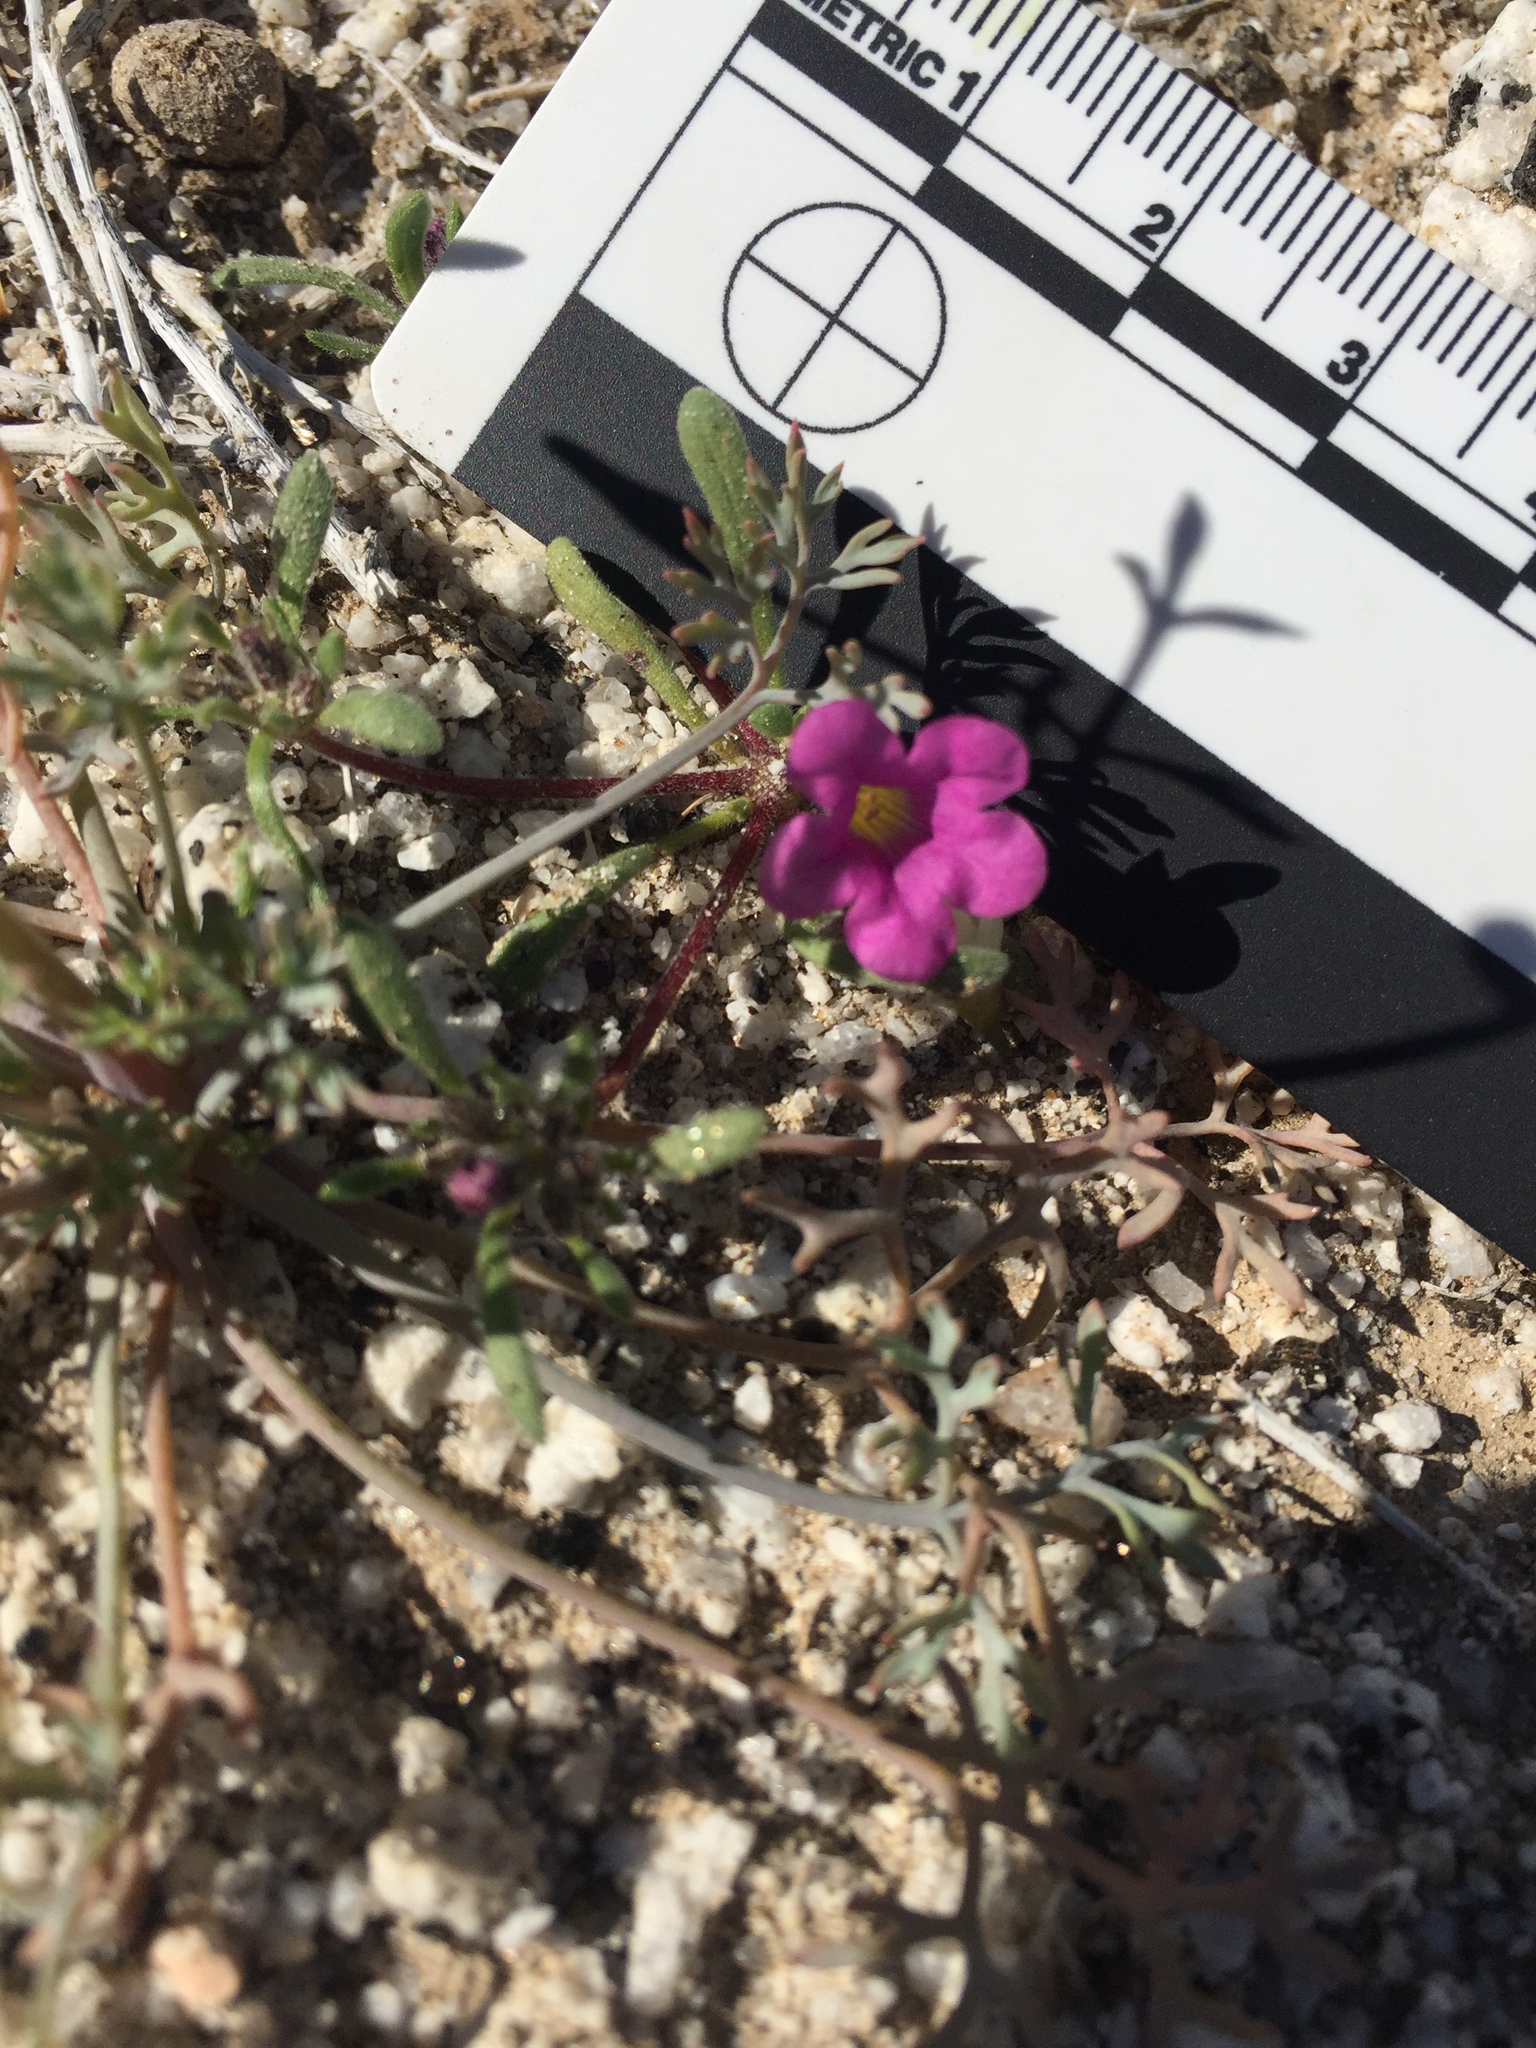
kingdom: Plantae
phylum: Tracheophyta
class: Magnoliopsida
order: Boraginales
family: Namaceae
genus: Nama
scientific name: Nama demissa
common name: Leafy nama
